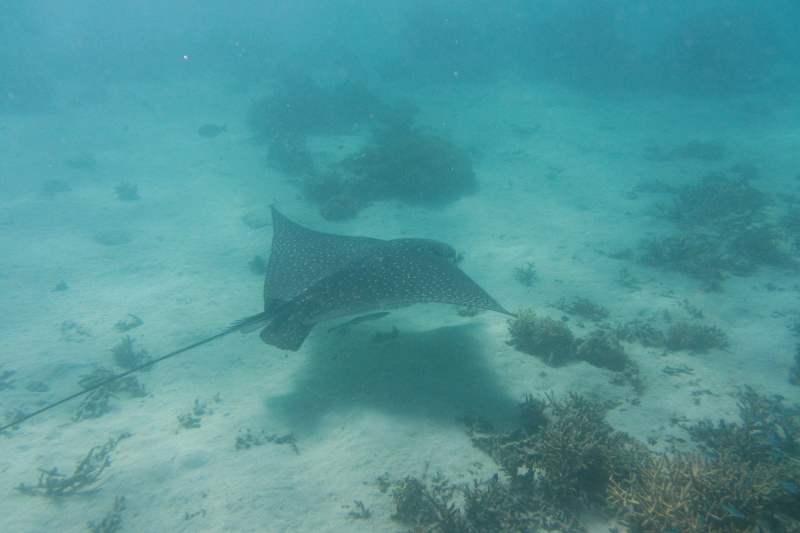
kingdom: Animalia
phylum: Chordata
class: Elasmobranchii
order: Myliobatiformes
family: Myliobatidae
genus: Aetobatus
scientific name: Aetobatus ocellatus
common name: Ocellated eagle ray
